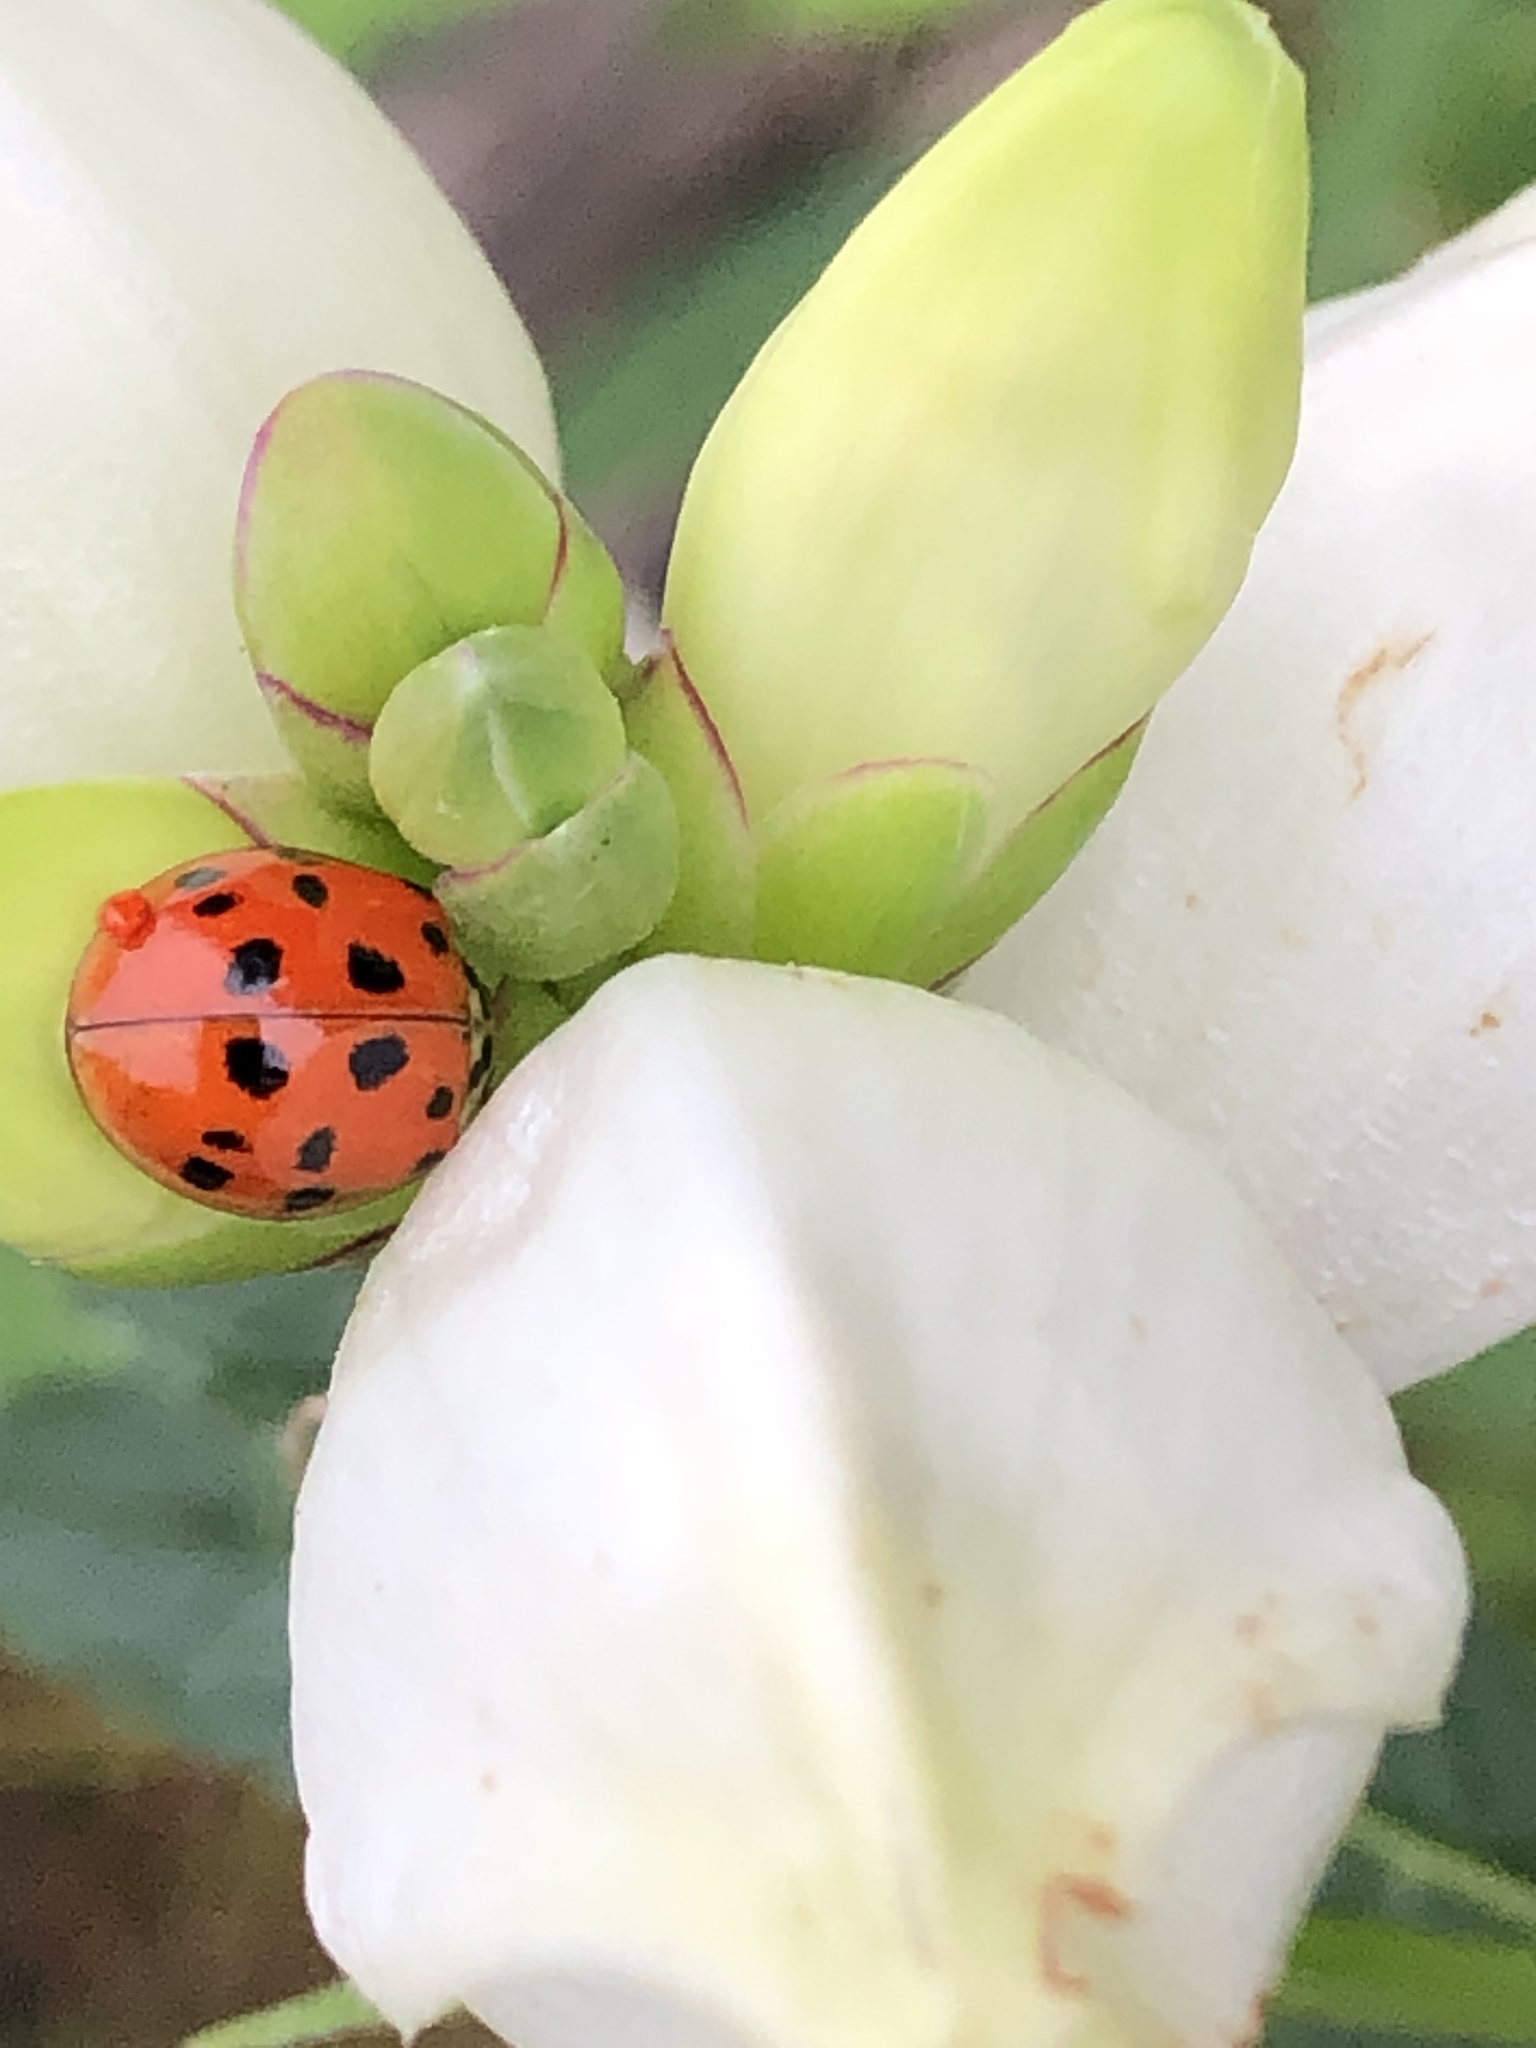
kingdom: Animalia
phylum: Arthropoda
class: Insecta
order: Coleoptera
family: Coccinellidae
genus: Harmonia
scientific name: Harmonia axyridis
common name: Harlequin ladybird
